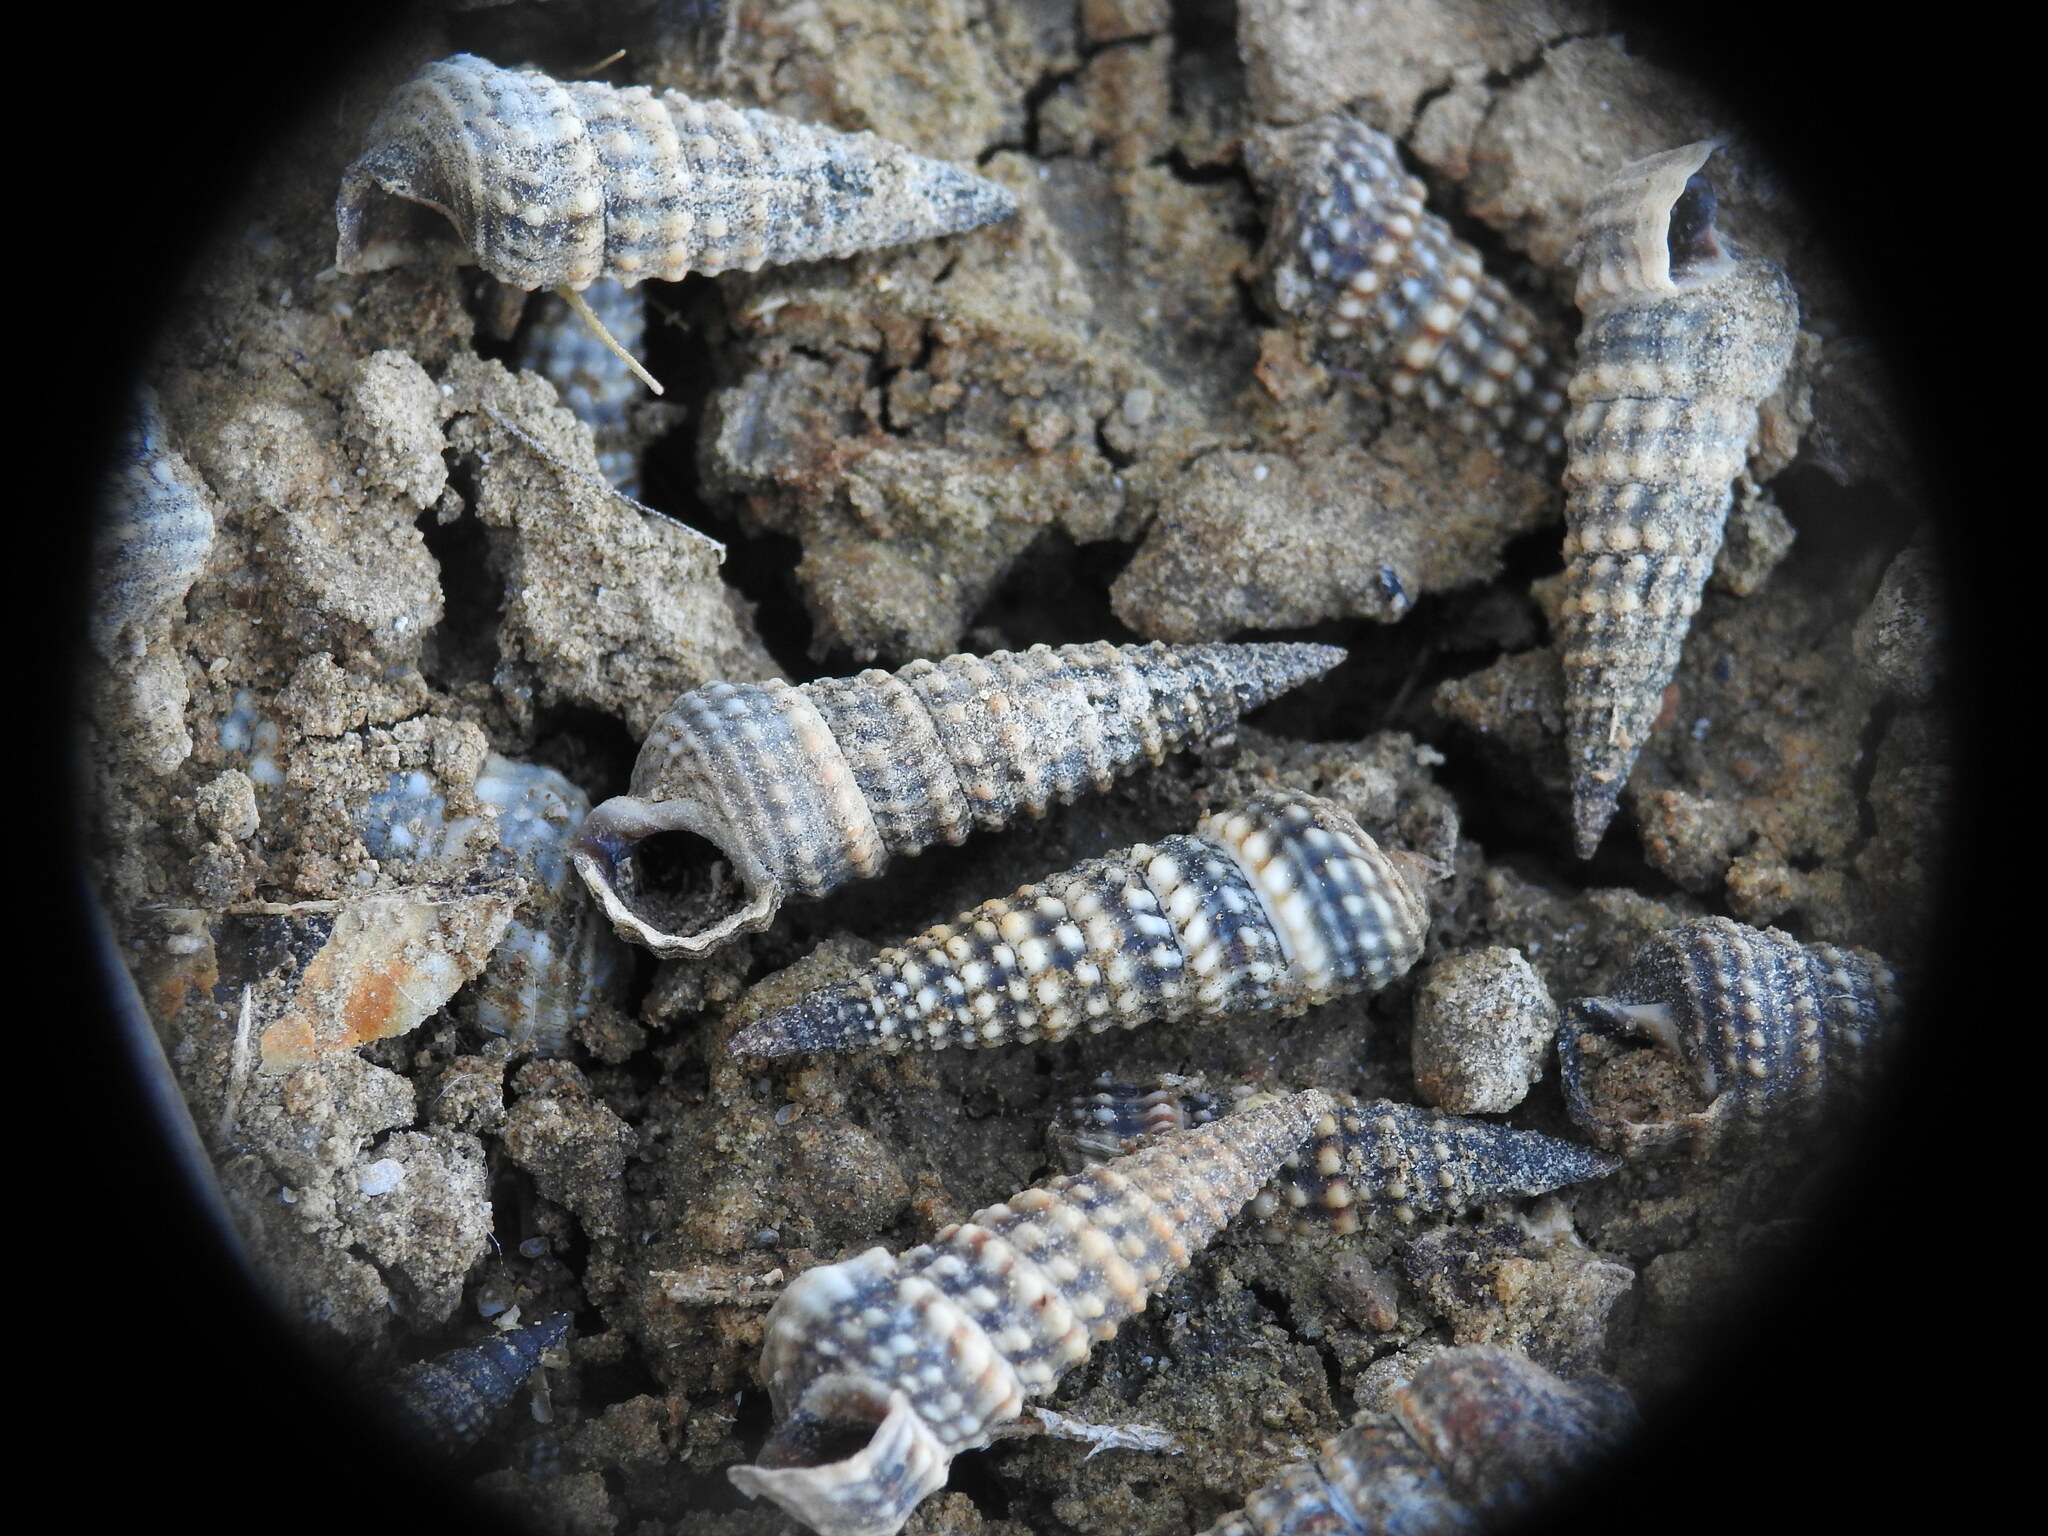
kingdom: Animalia
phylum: Mollusca
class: Gastropoda
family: Potamididae
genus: Pirenella
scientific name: Pirenella conica
